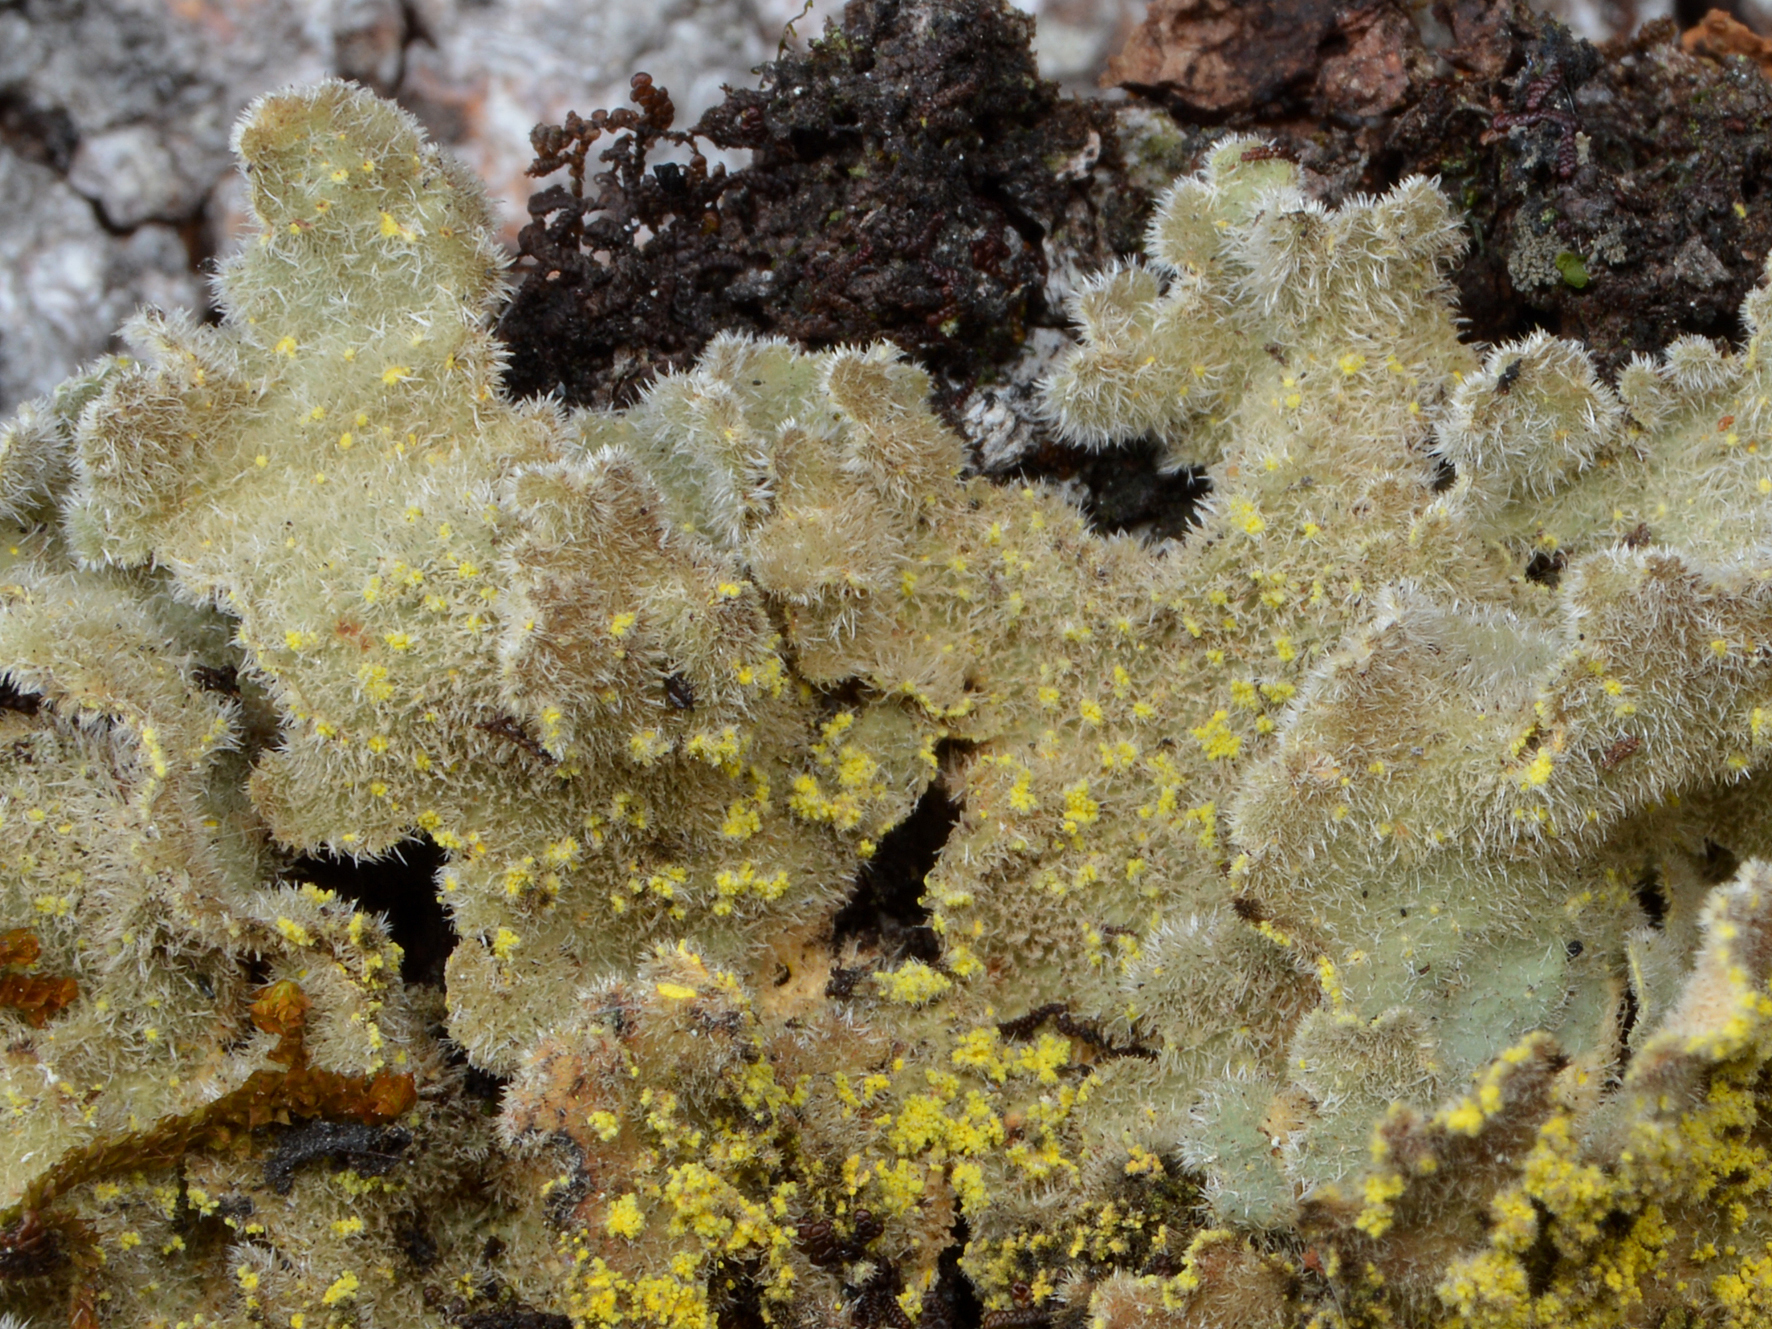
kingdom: Fungi
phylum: Ascomycota
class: Lecanoromycetes
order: Peltigerales
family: Lobariaceae
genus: Pseudocyphellaria
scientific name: Pseudocyphellaria rubella
